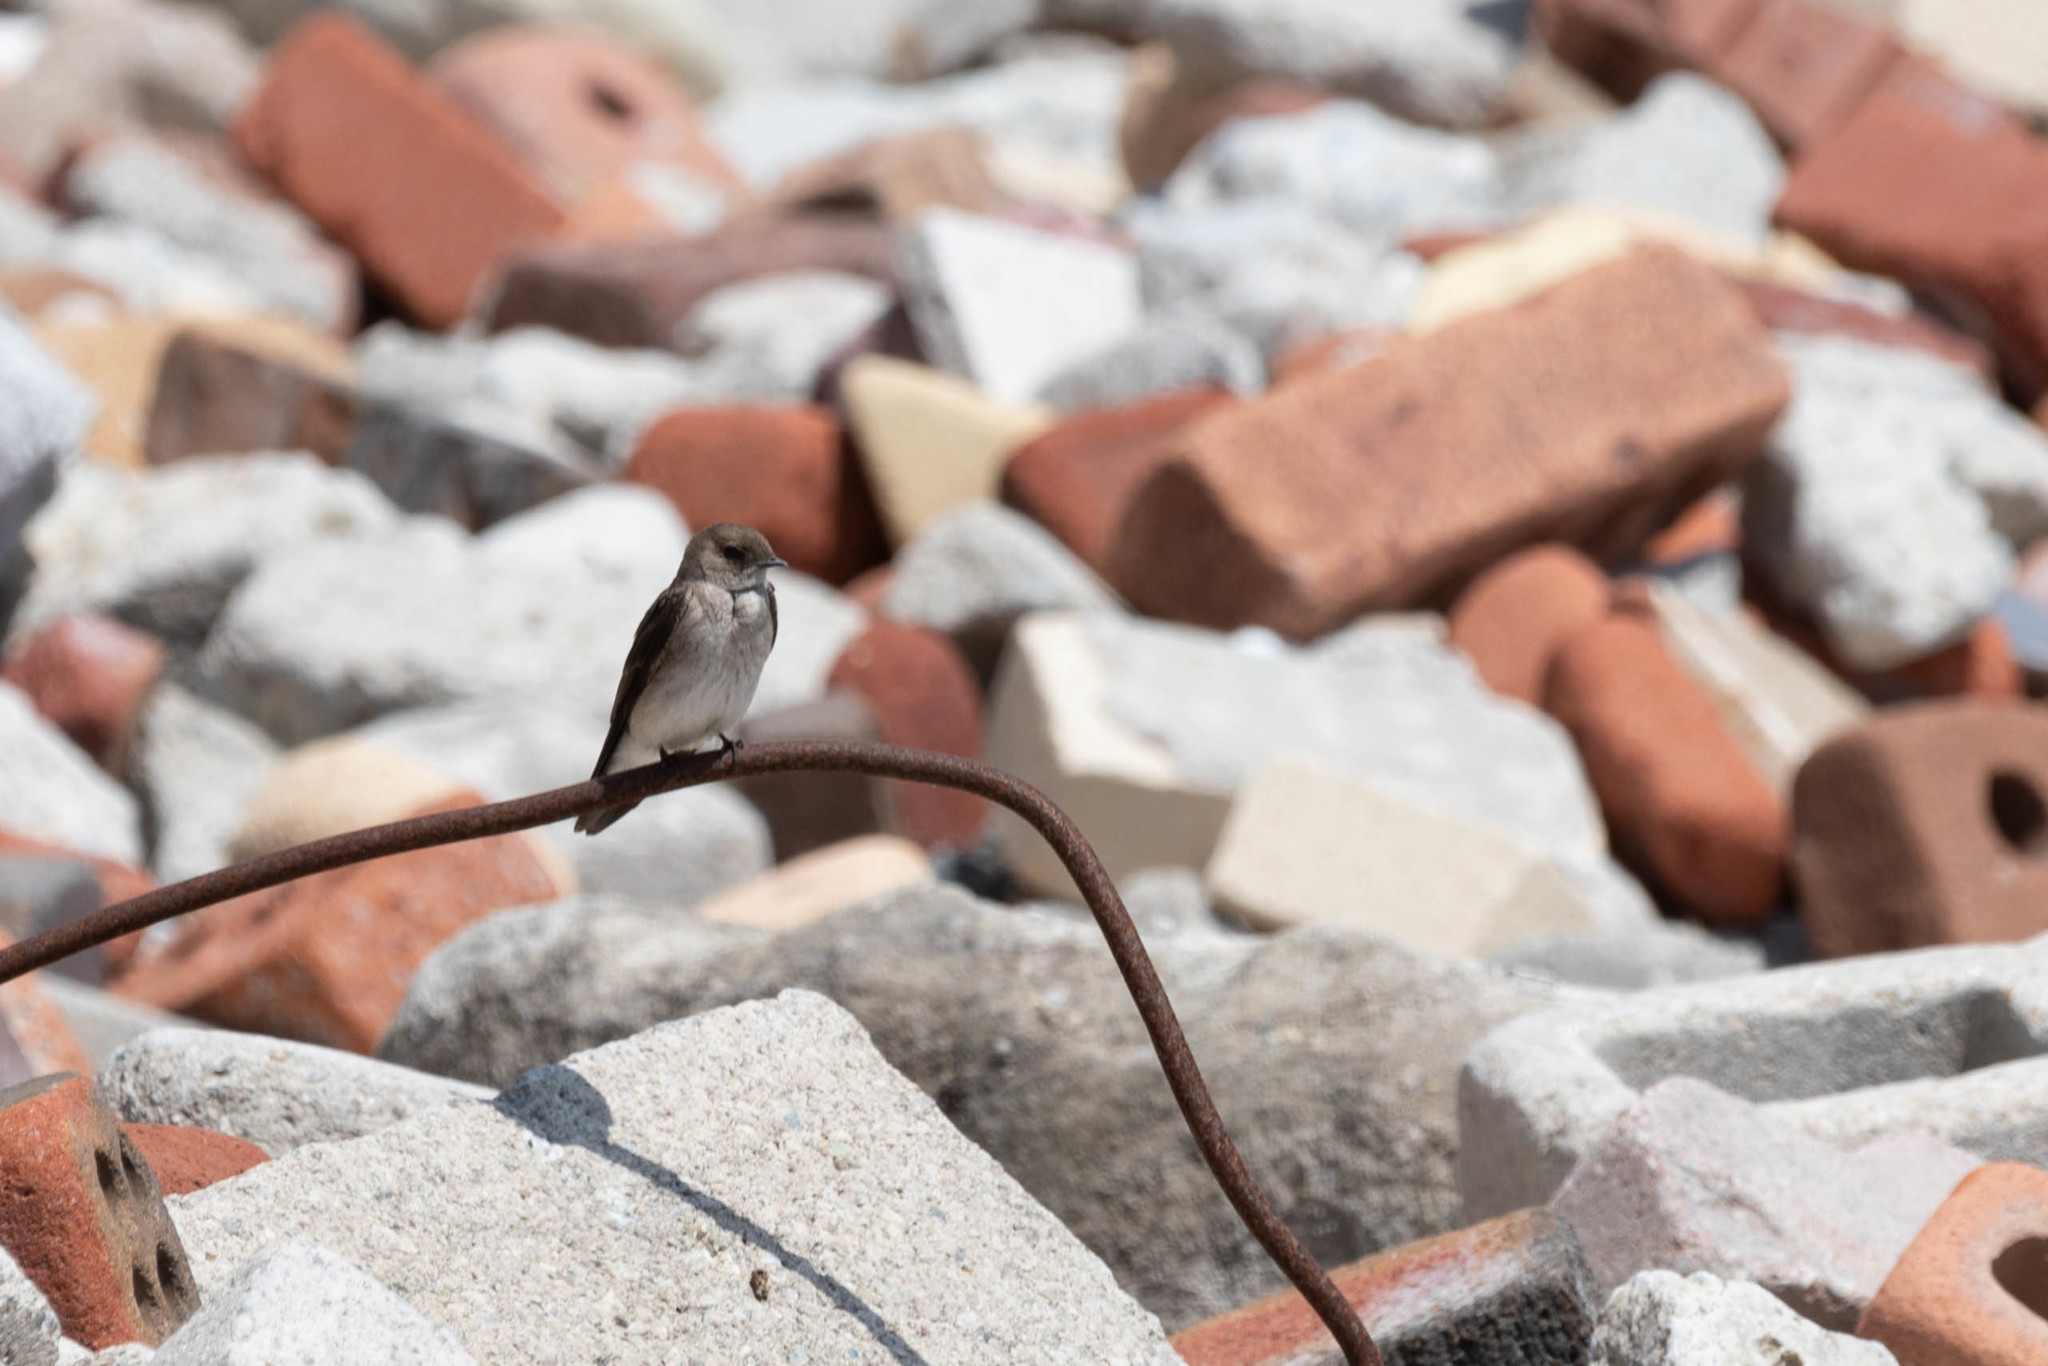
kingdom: Animalia
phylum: Chordata
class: Aves
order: Passeriformes
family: Hirundinidae
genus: Stelgidopteryx
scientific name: Stelgidopteryx serripennis
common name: Northern rough-winged swallow
